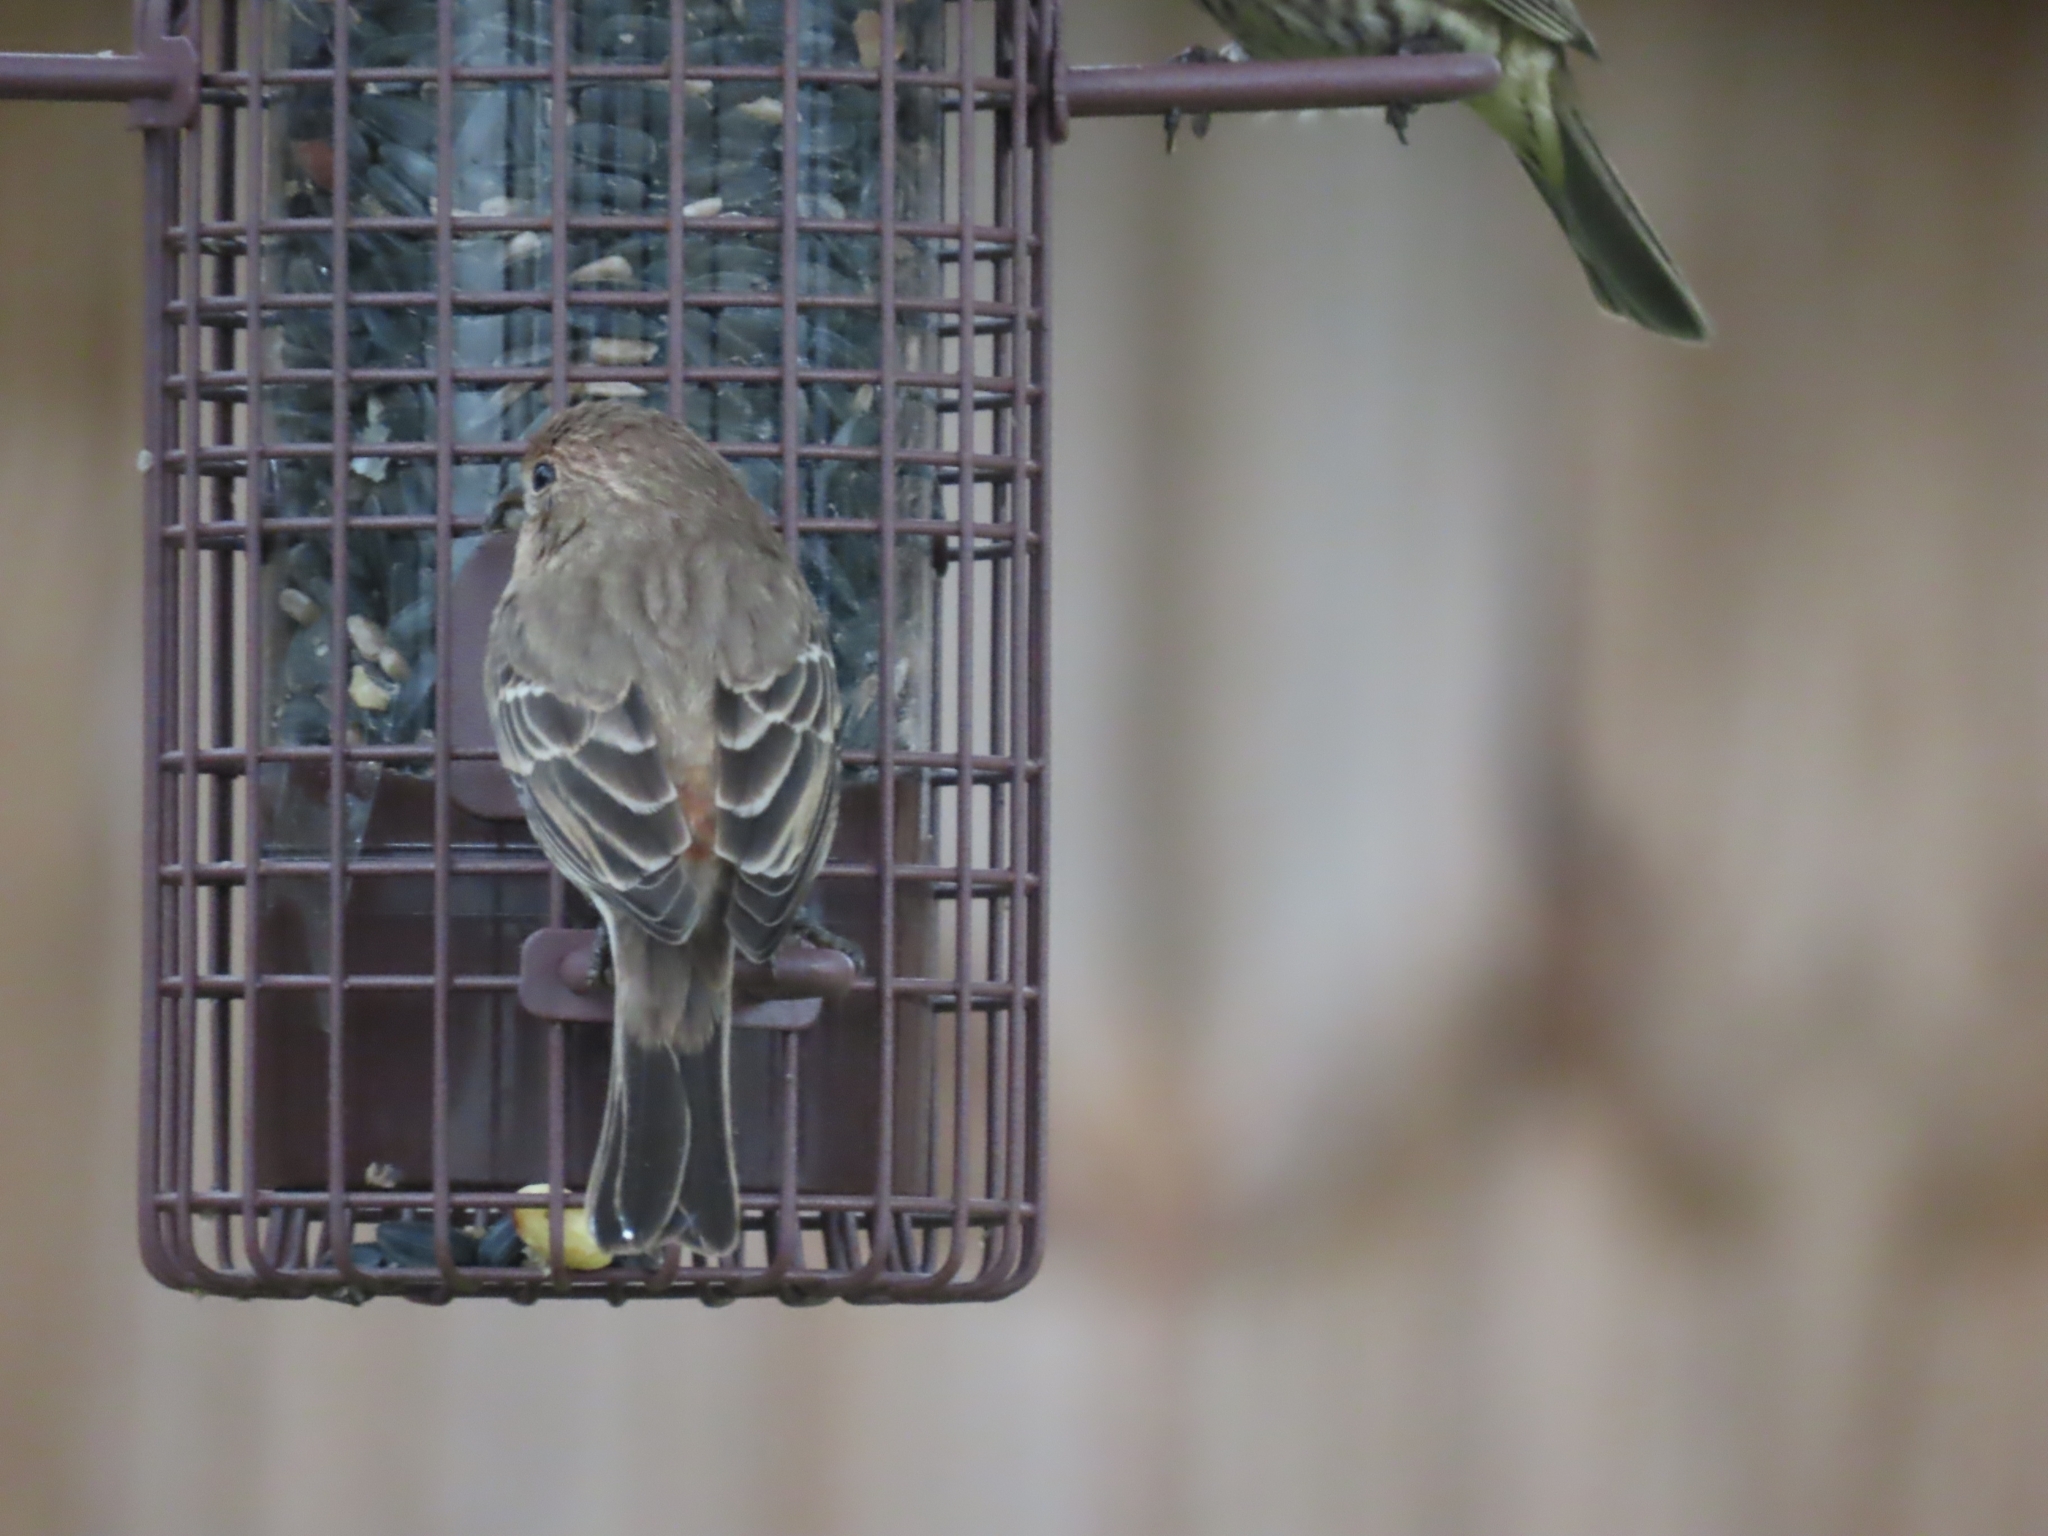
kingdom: Animalia
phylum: Chordata
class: Aves
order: Passeriformes
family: Fringillidae
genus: Haemorhous
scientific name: Haemorhous mexicanus
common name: House finch
